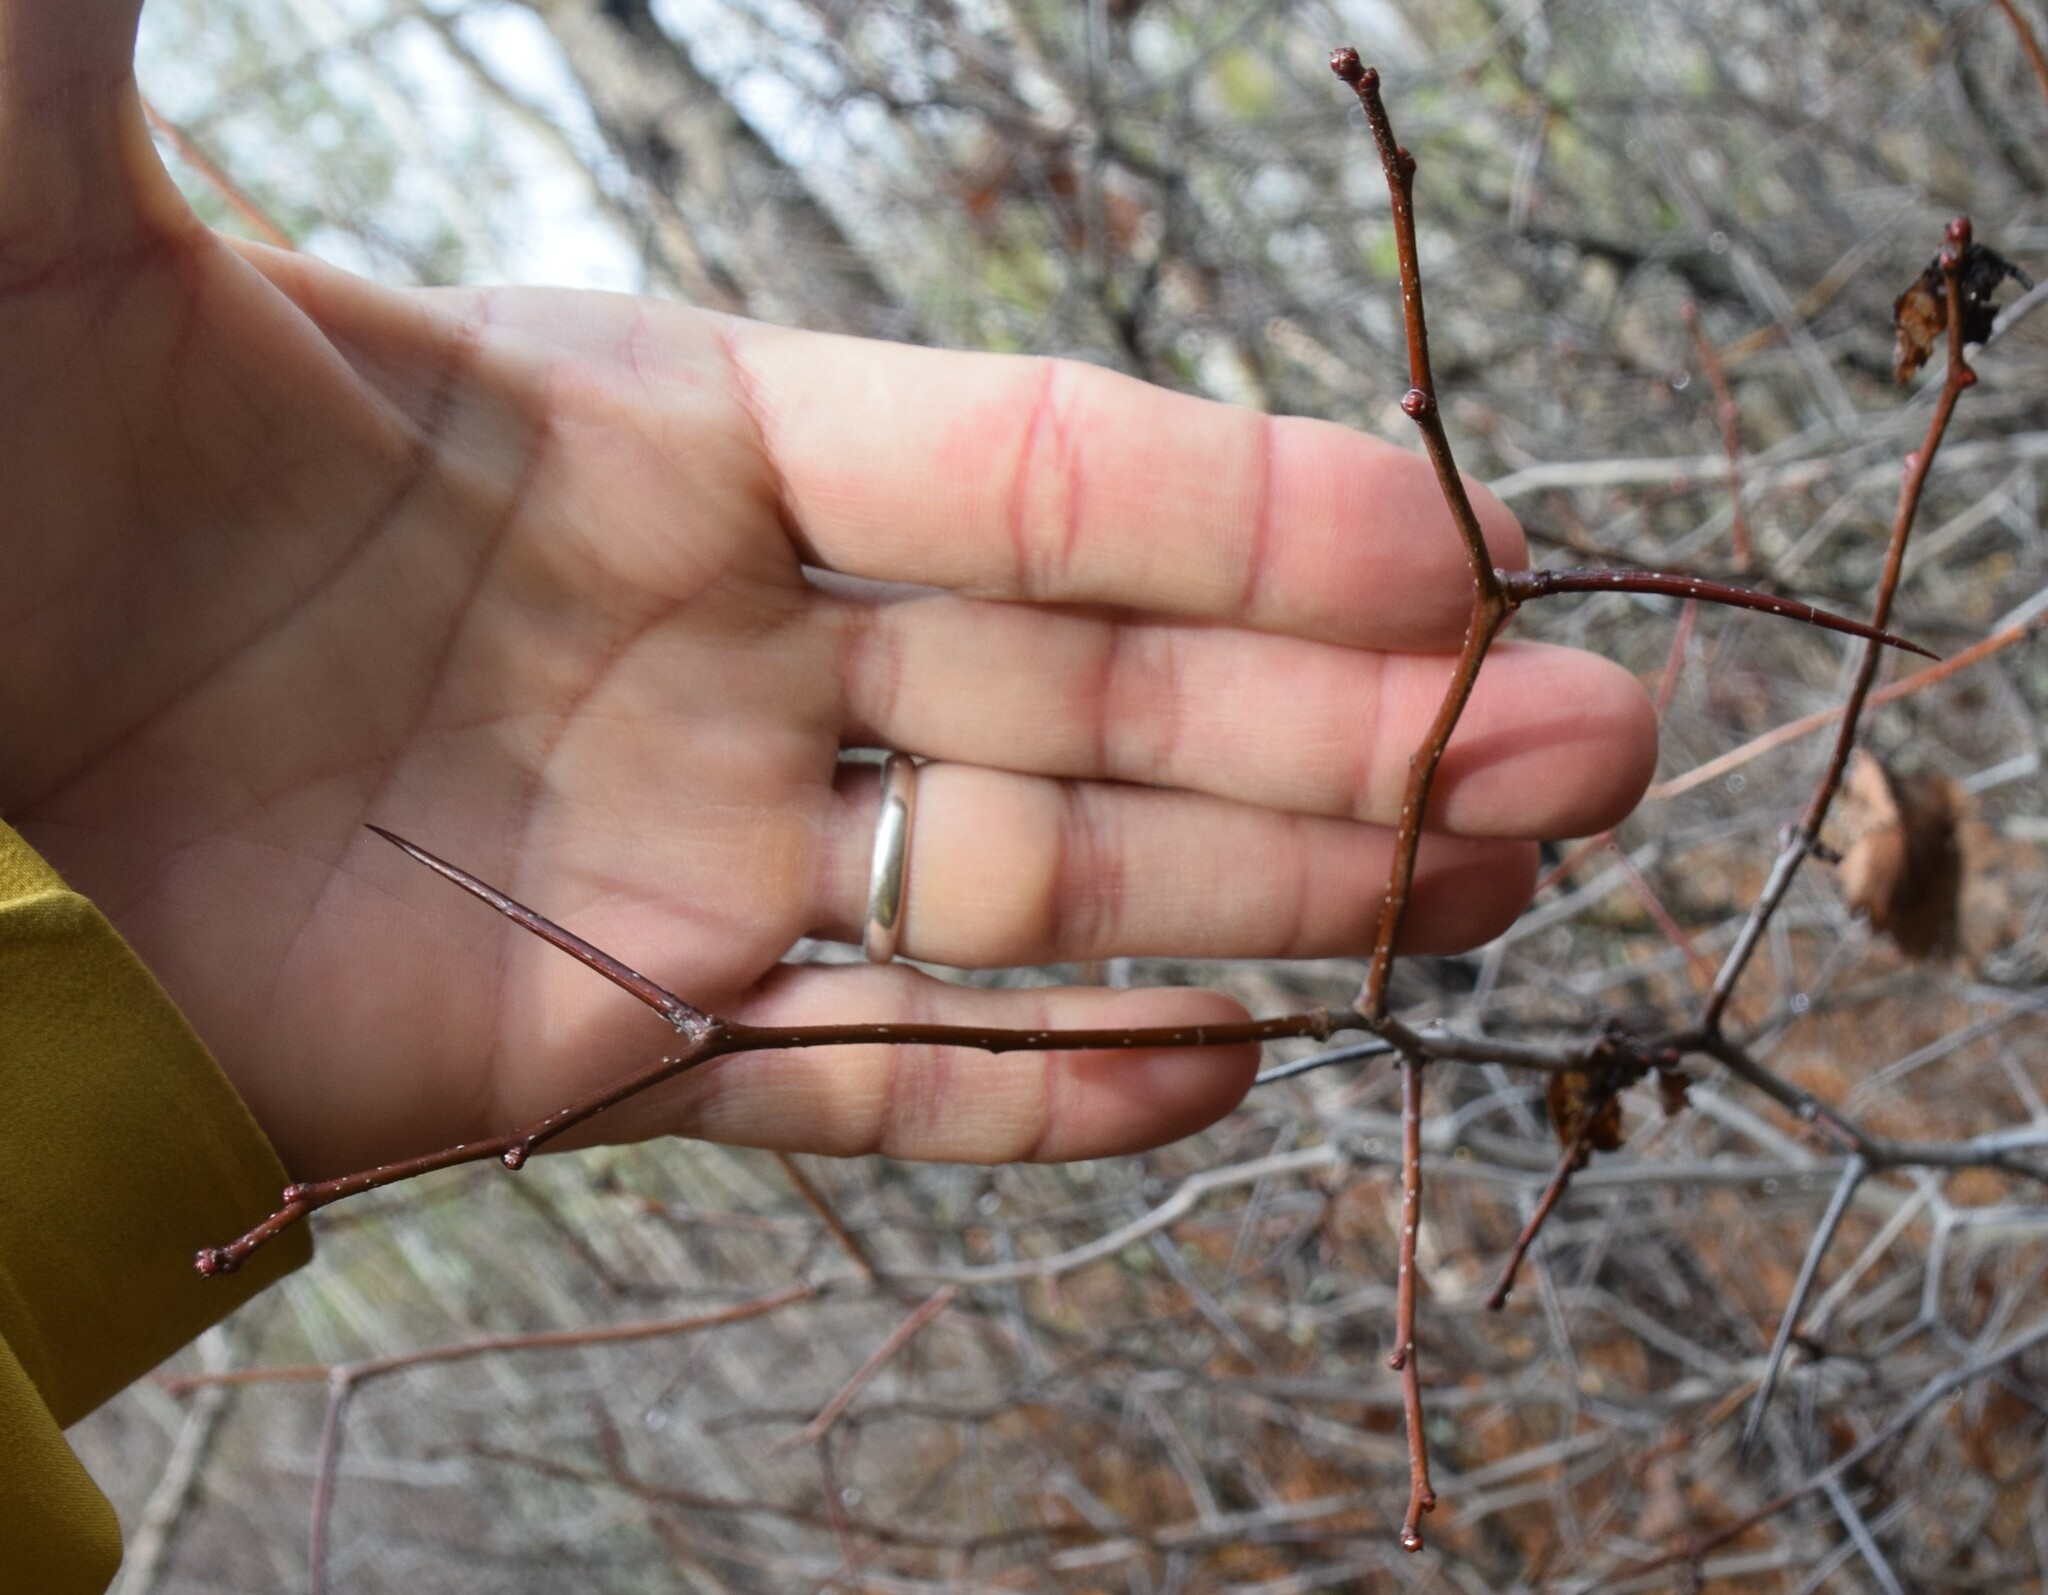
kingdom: Plantae
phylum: Tracheophyta
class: Magnoliopsida
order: Rosales
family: Rosaceae
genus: Crataegus
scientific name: Crataegus
